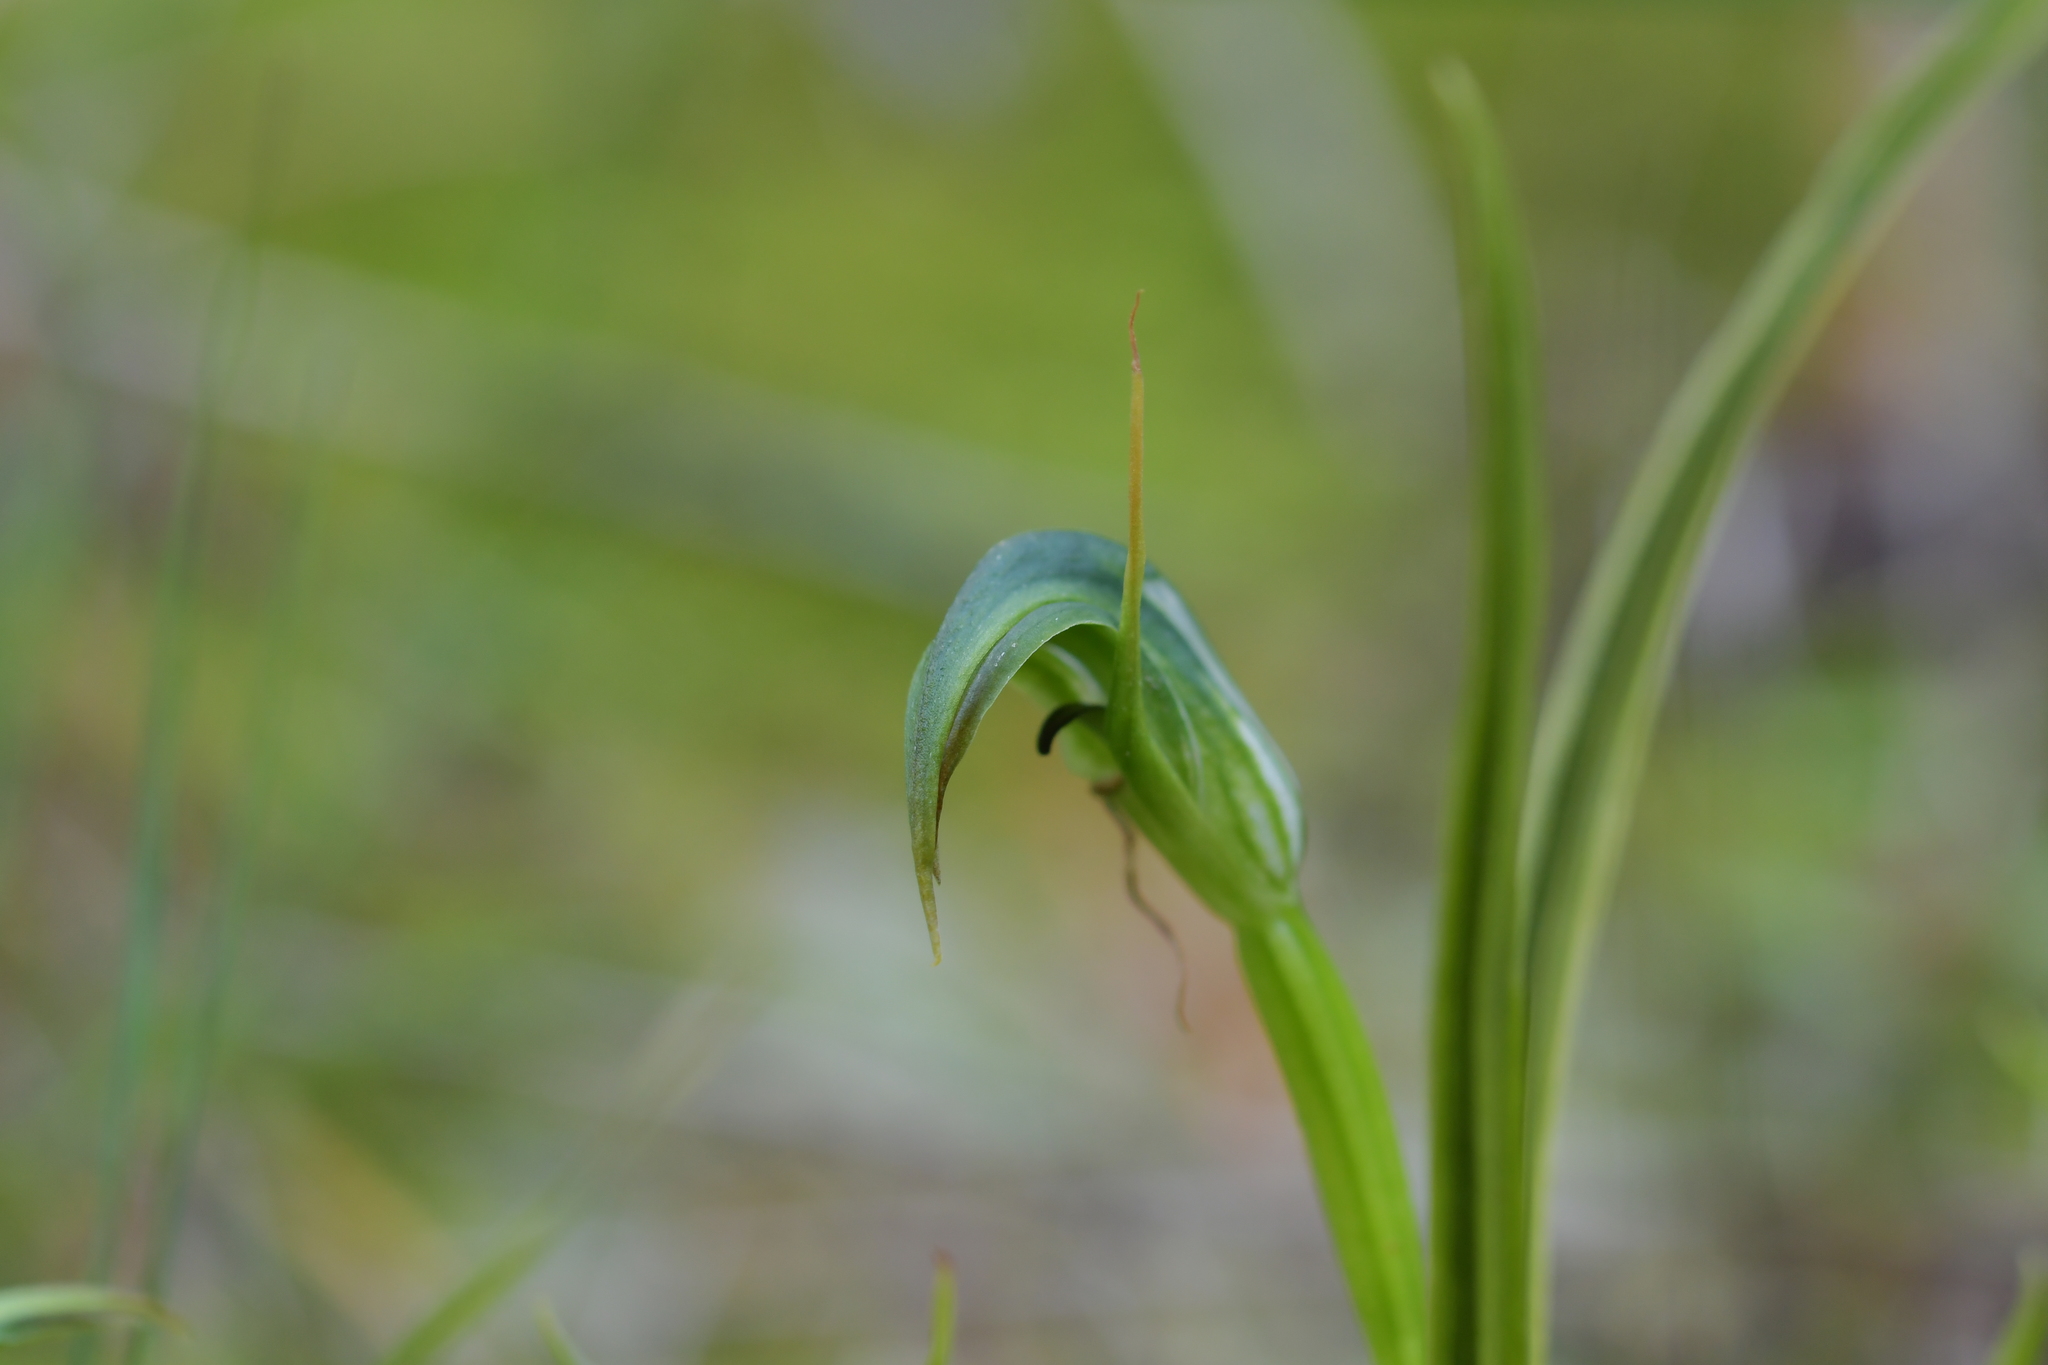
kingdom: Plantae
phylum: Tracheophyta
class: Liliopsida
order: Asparagales
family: Orchidaceae
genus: Pterostylis
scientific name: Pterostylis graminea
